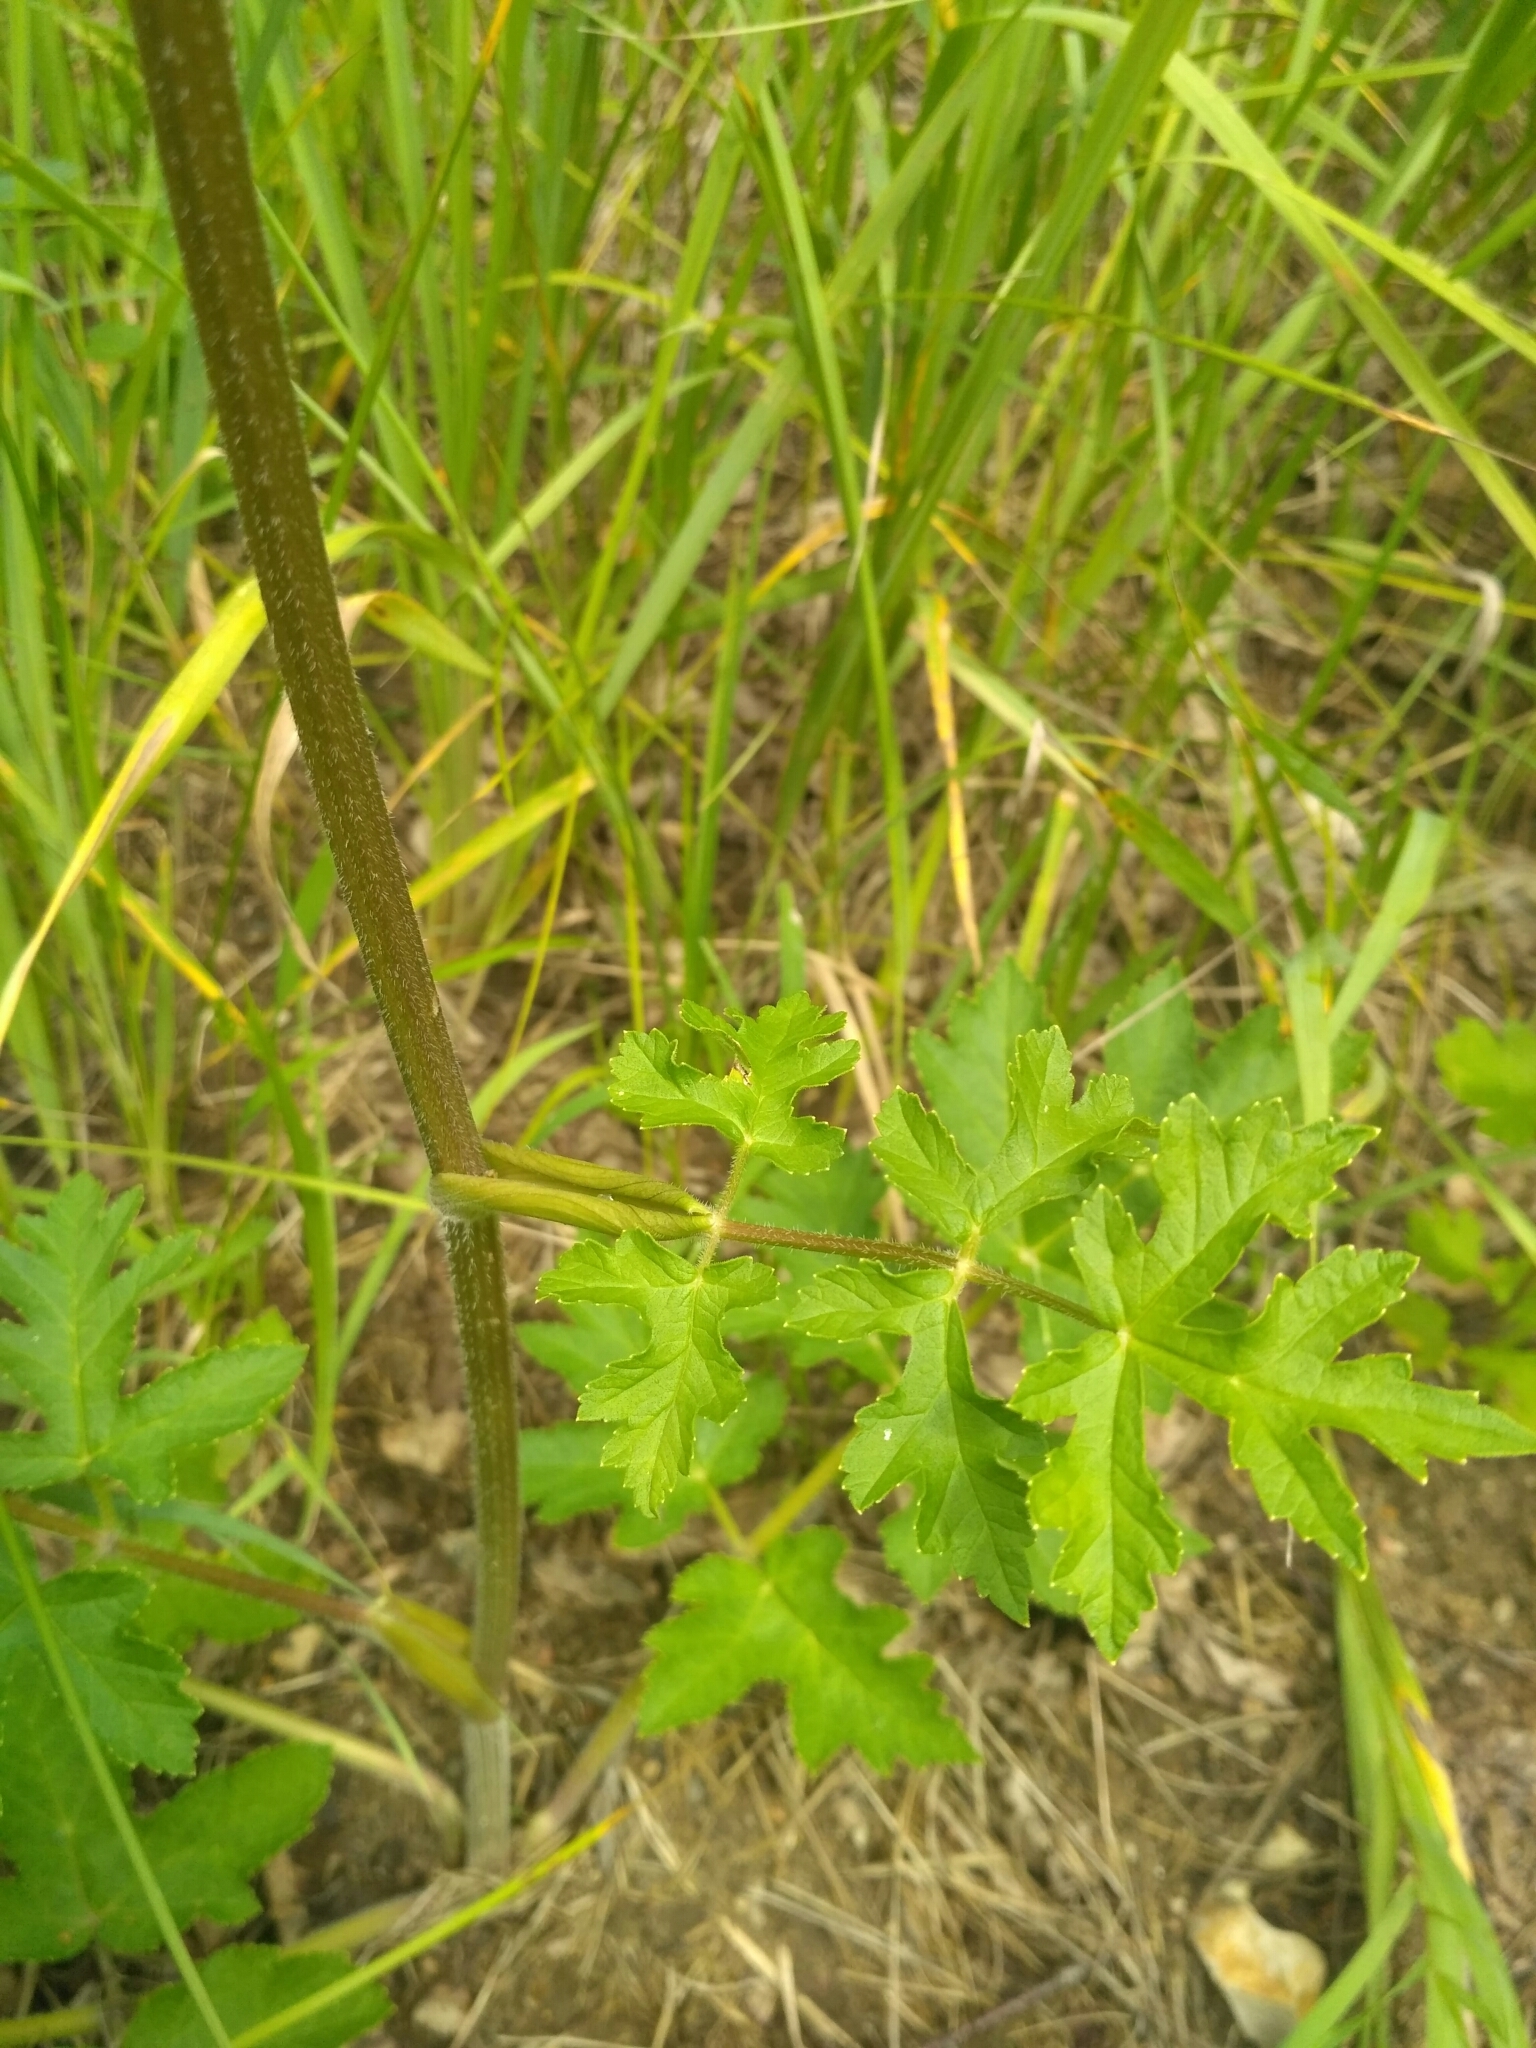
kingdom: Plantae
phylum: Tracheophyta
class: Magnoliopsida
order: Apiales
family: Apiaceae
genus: Heracleum
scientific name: Heracleum sphondylium
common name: Hogweed
